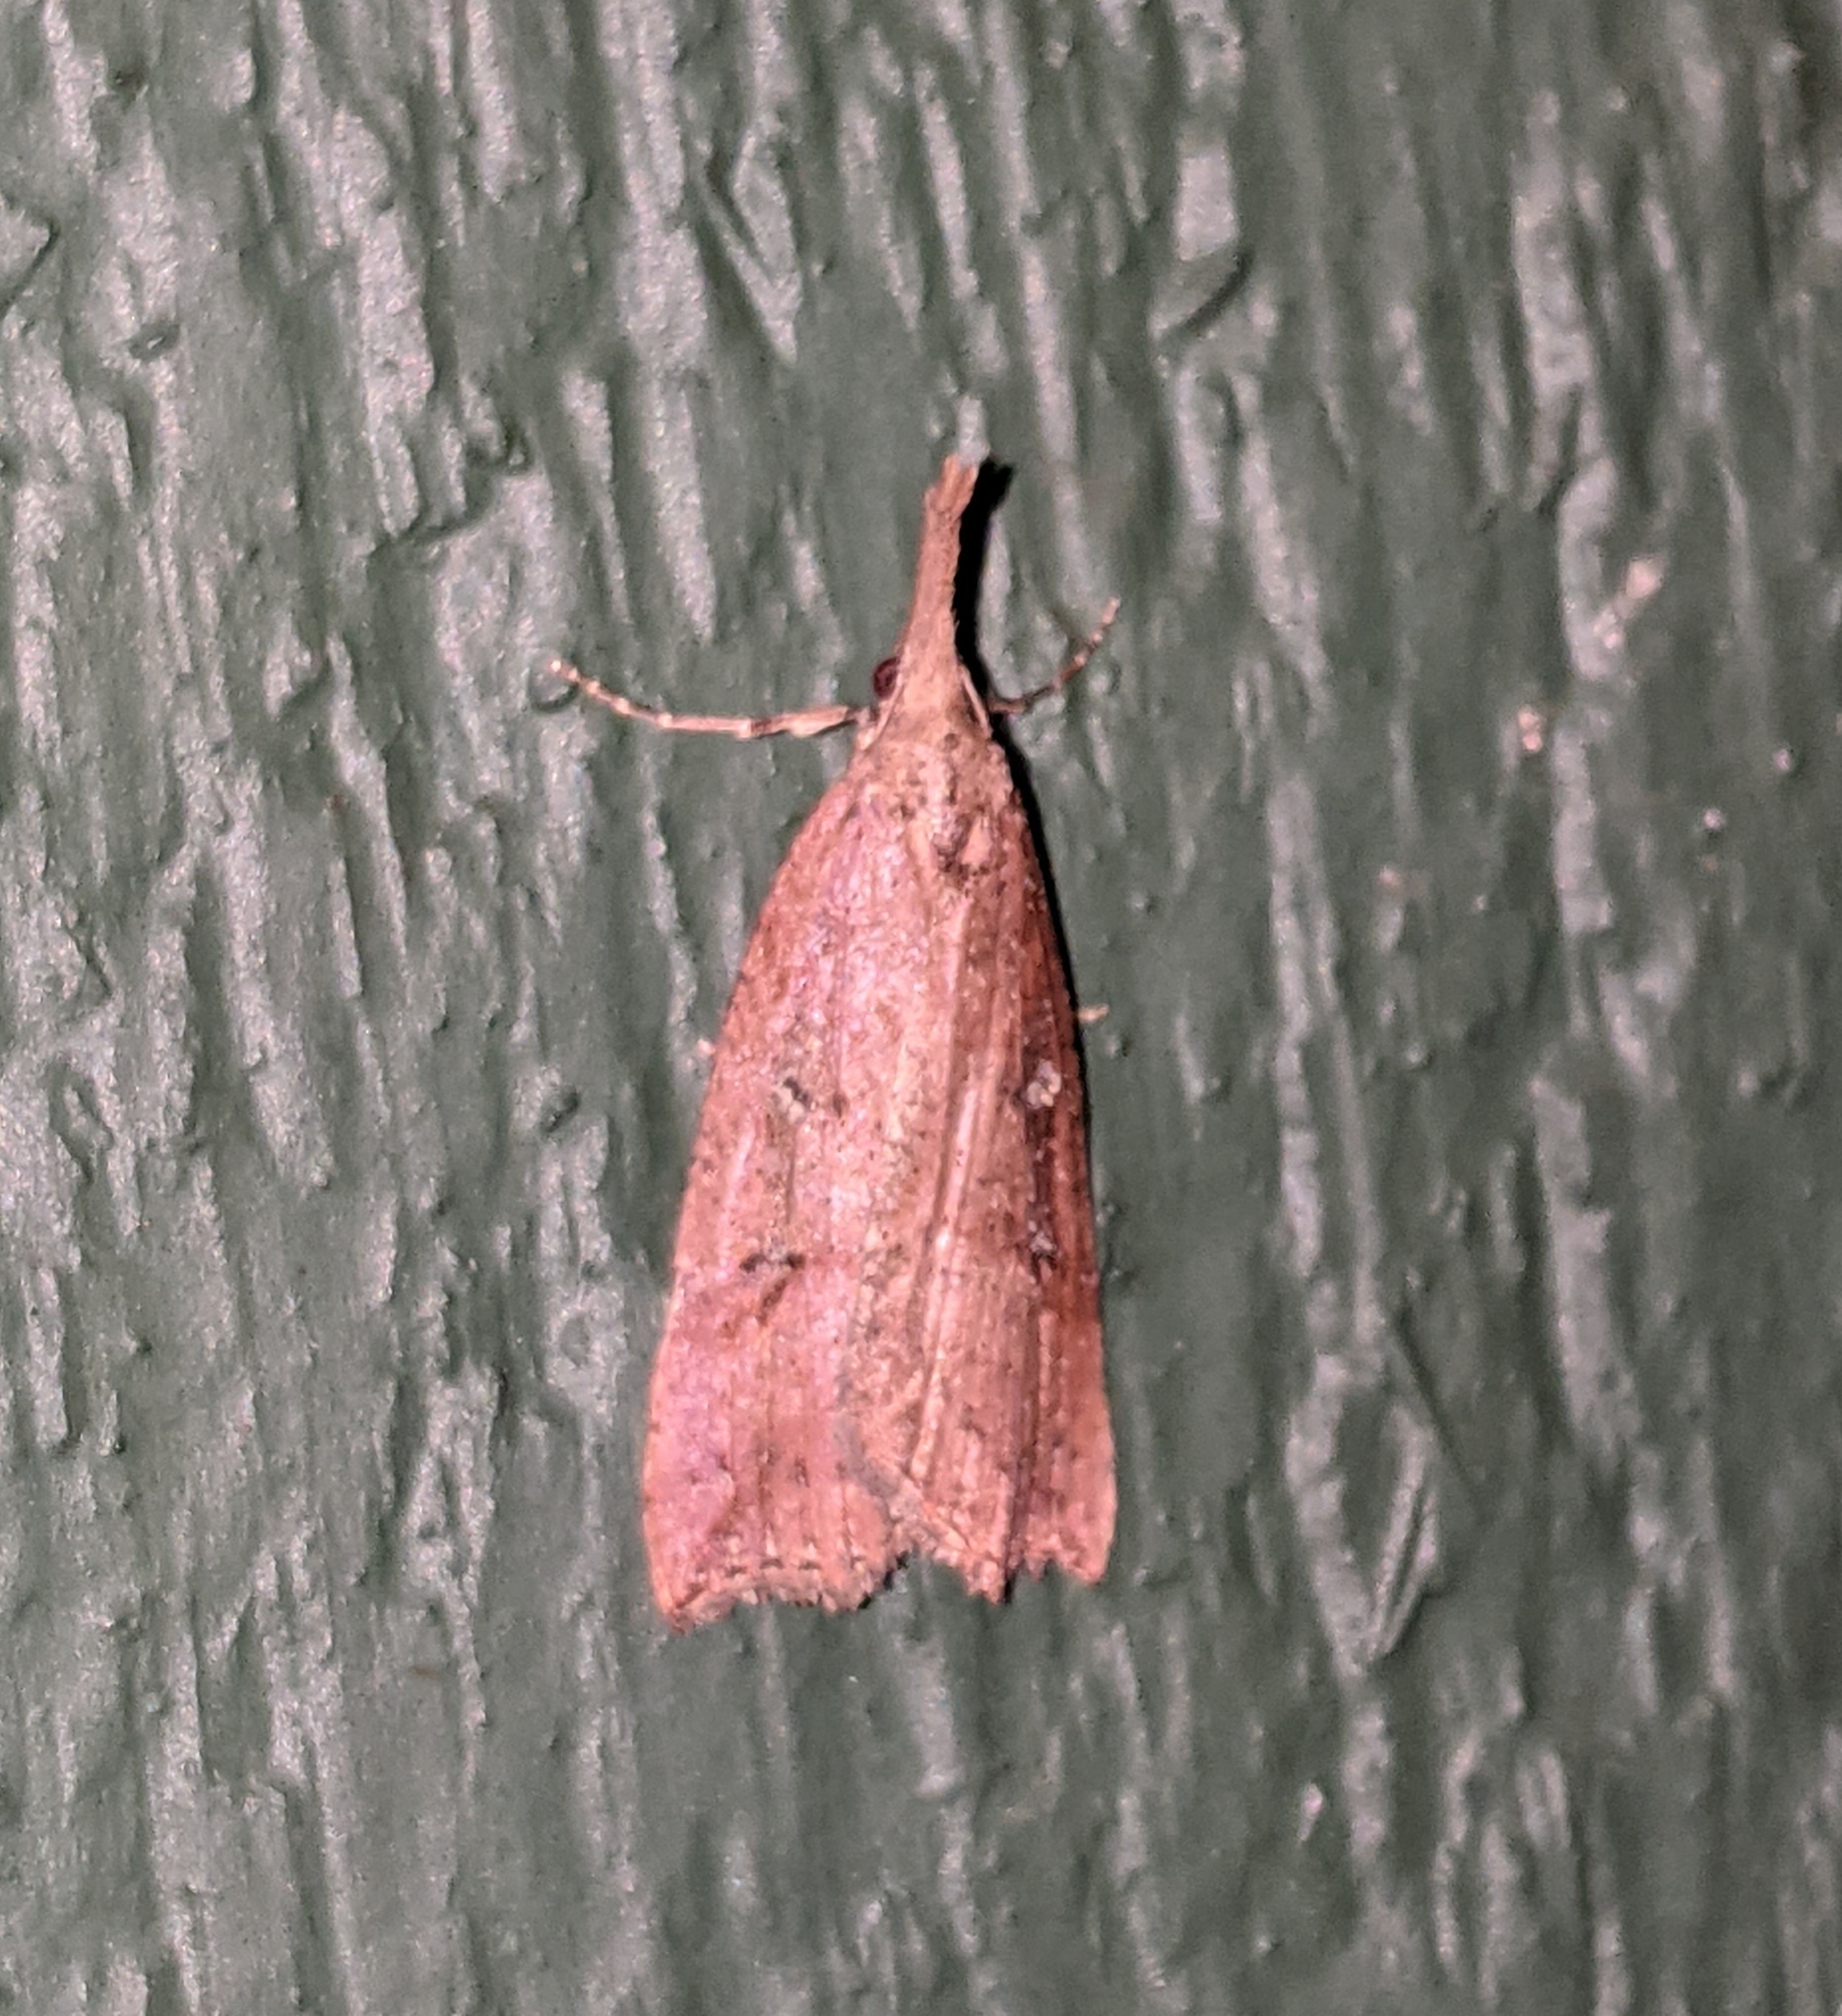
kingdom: Animalia
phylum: Arthropoda
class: Insecta
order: Lepidoptera
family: Erebidae
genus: Hypena
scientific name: Hypena californica
